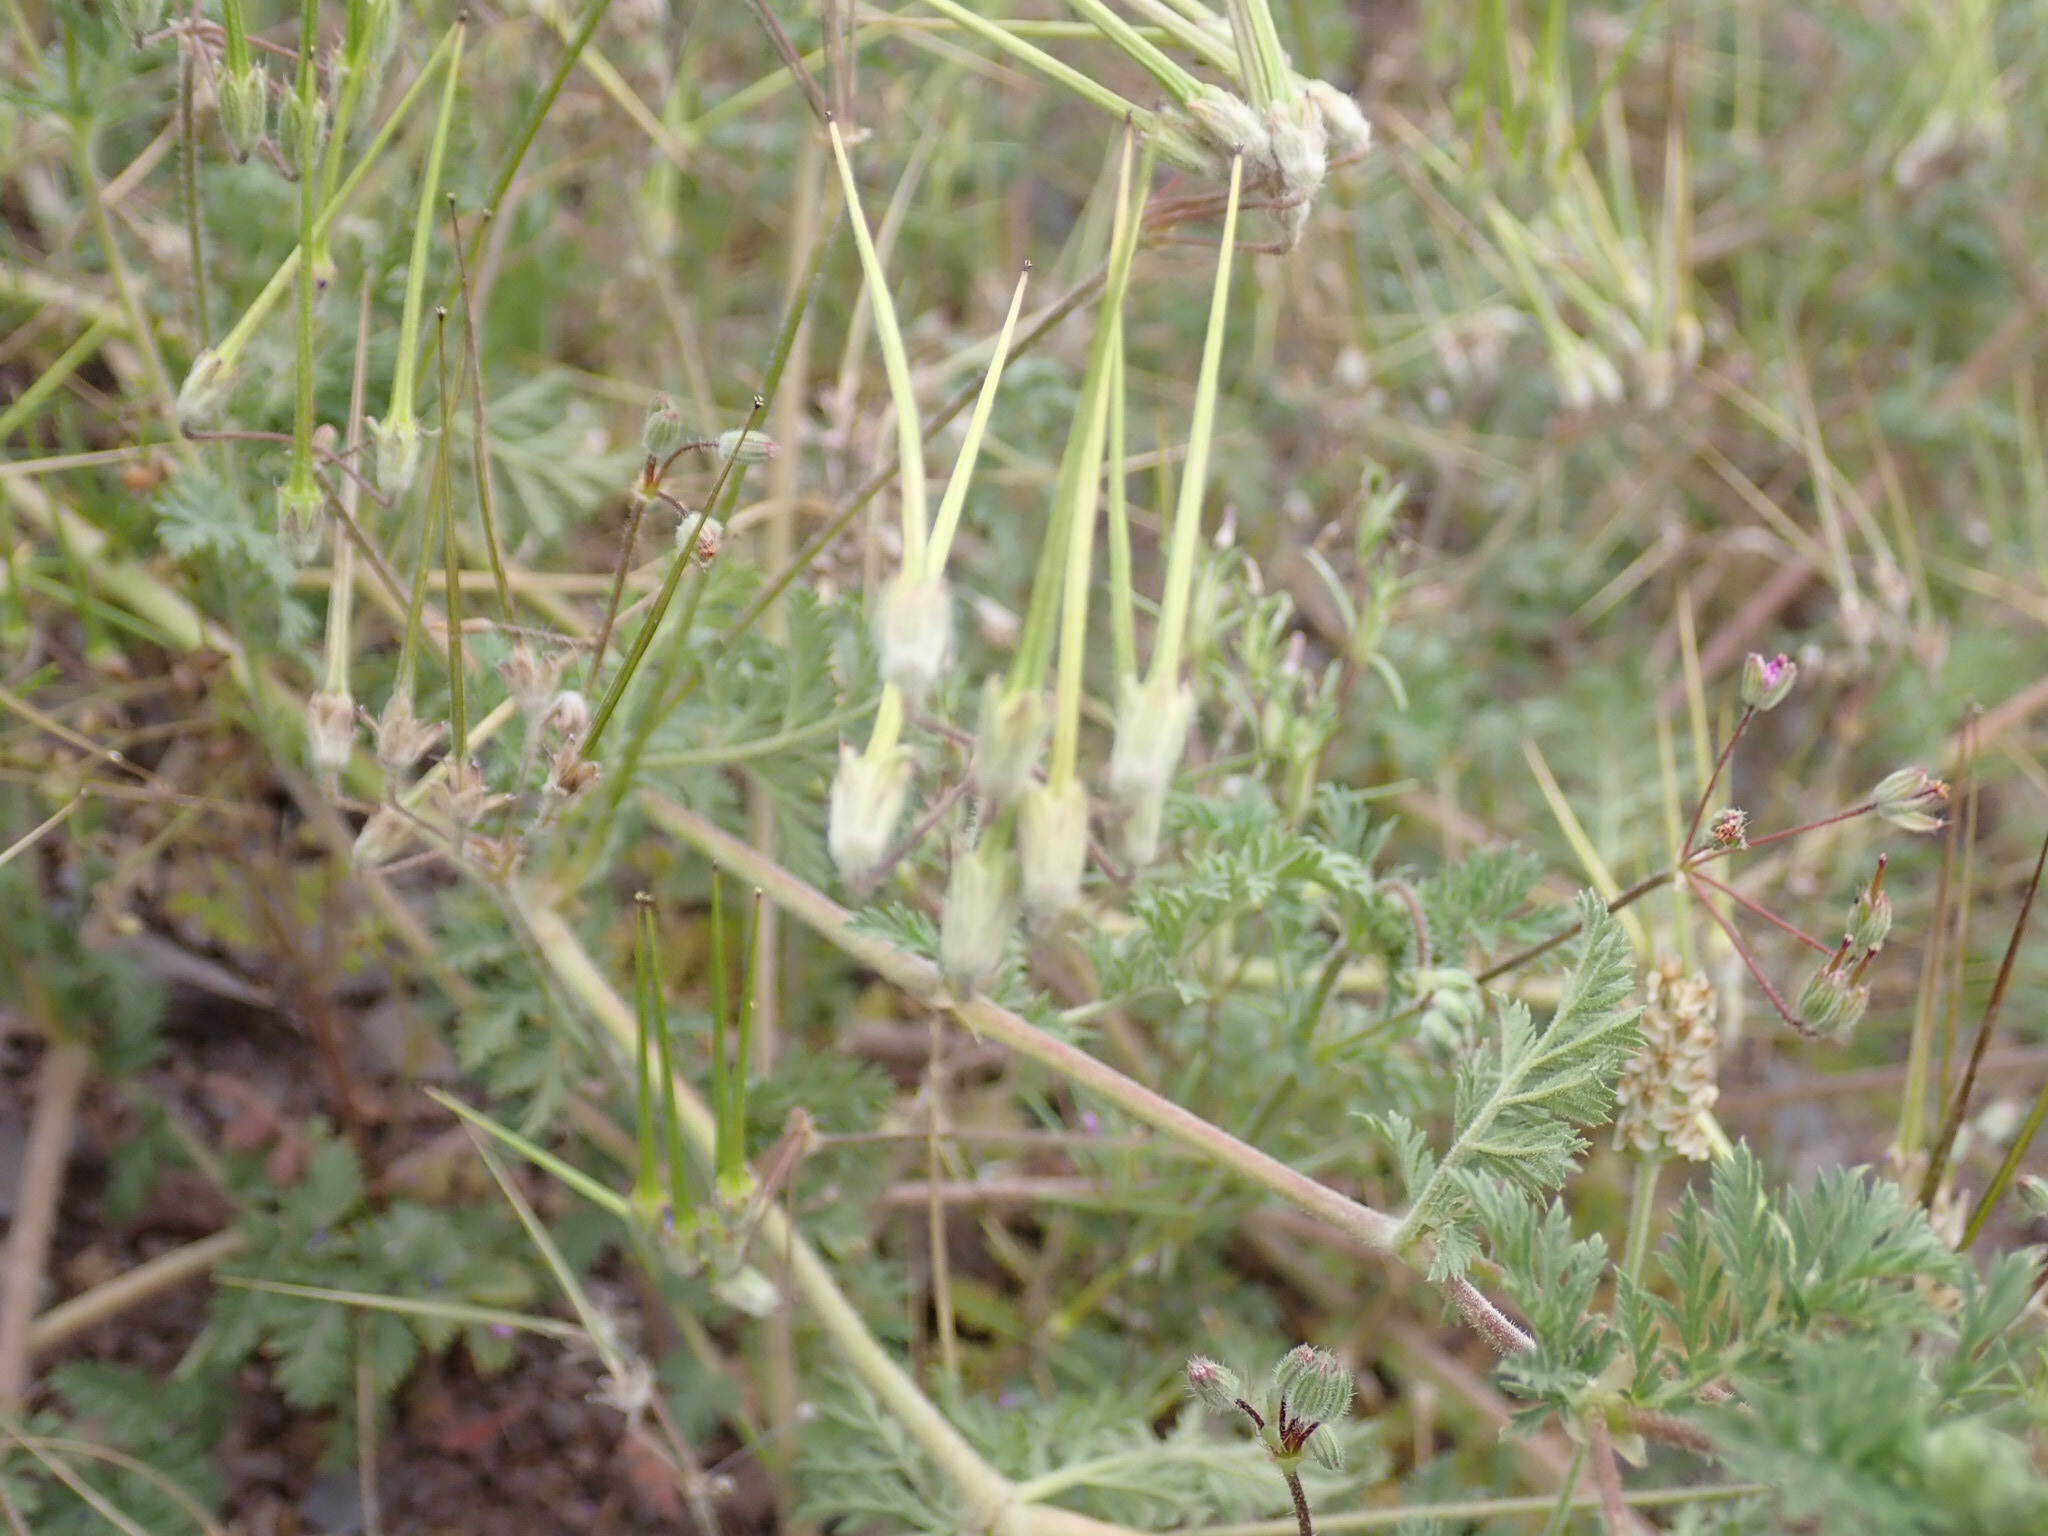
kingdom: Plantae
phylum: Tracheophyta
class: Magnoliopsida
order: Geraniales
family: Geraniaceae
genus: Erodium
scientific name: Erodium cicutarium
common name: Common stork's-bill
